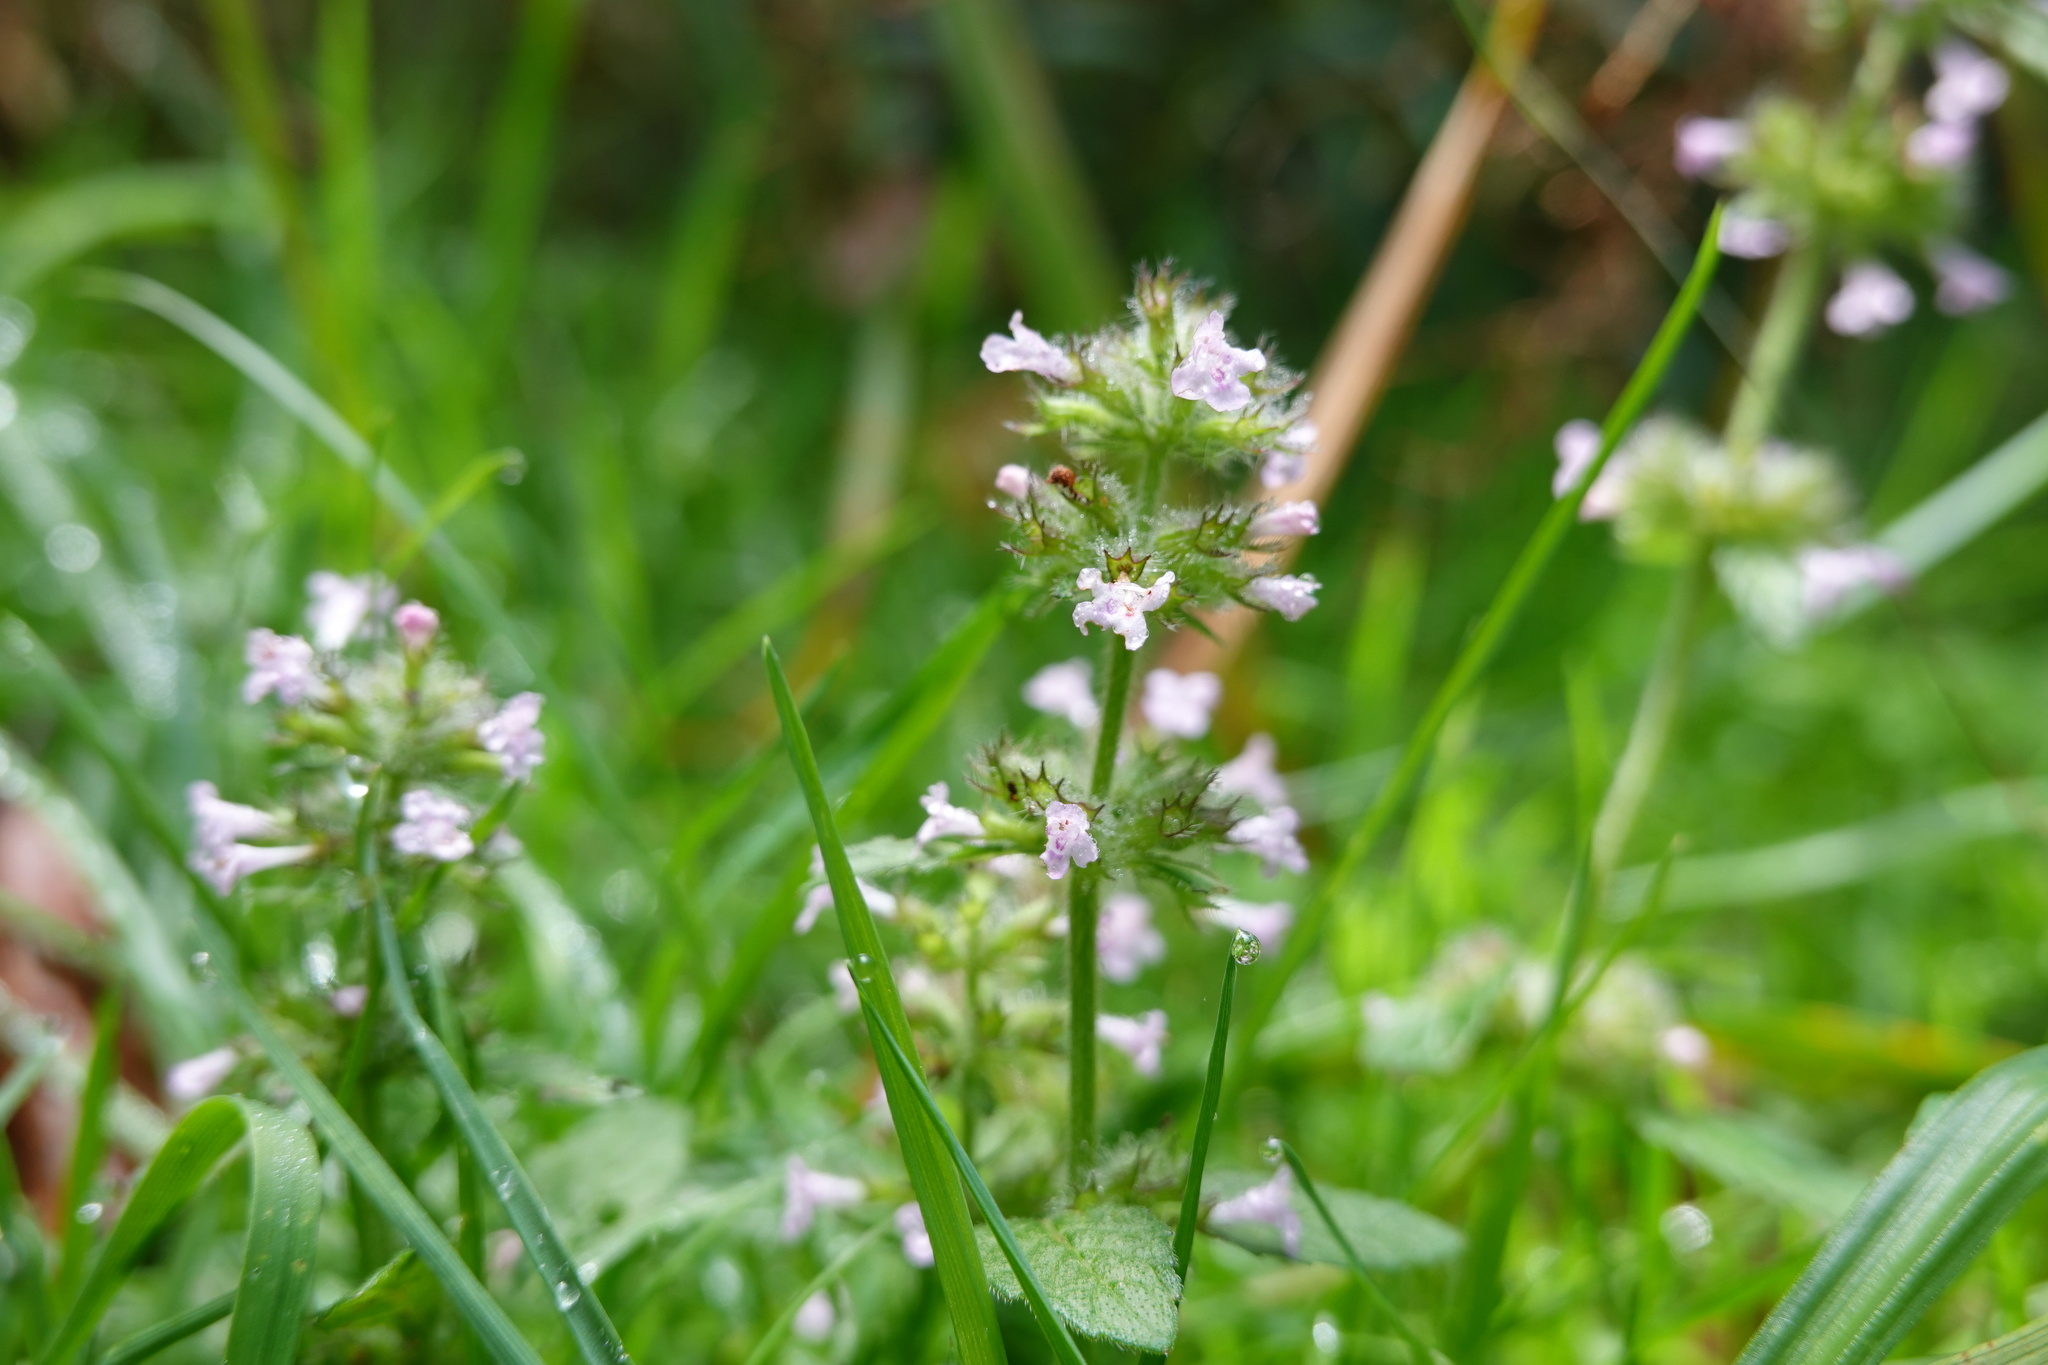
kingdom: Plantae
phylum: Tracheophyta
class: Magnoliopsida
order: Lamiales
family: Lamiaceae
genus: Clinopodium
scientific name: Clinopodium chinense
